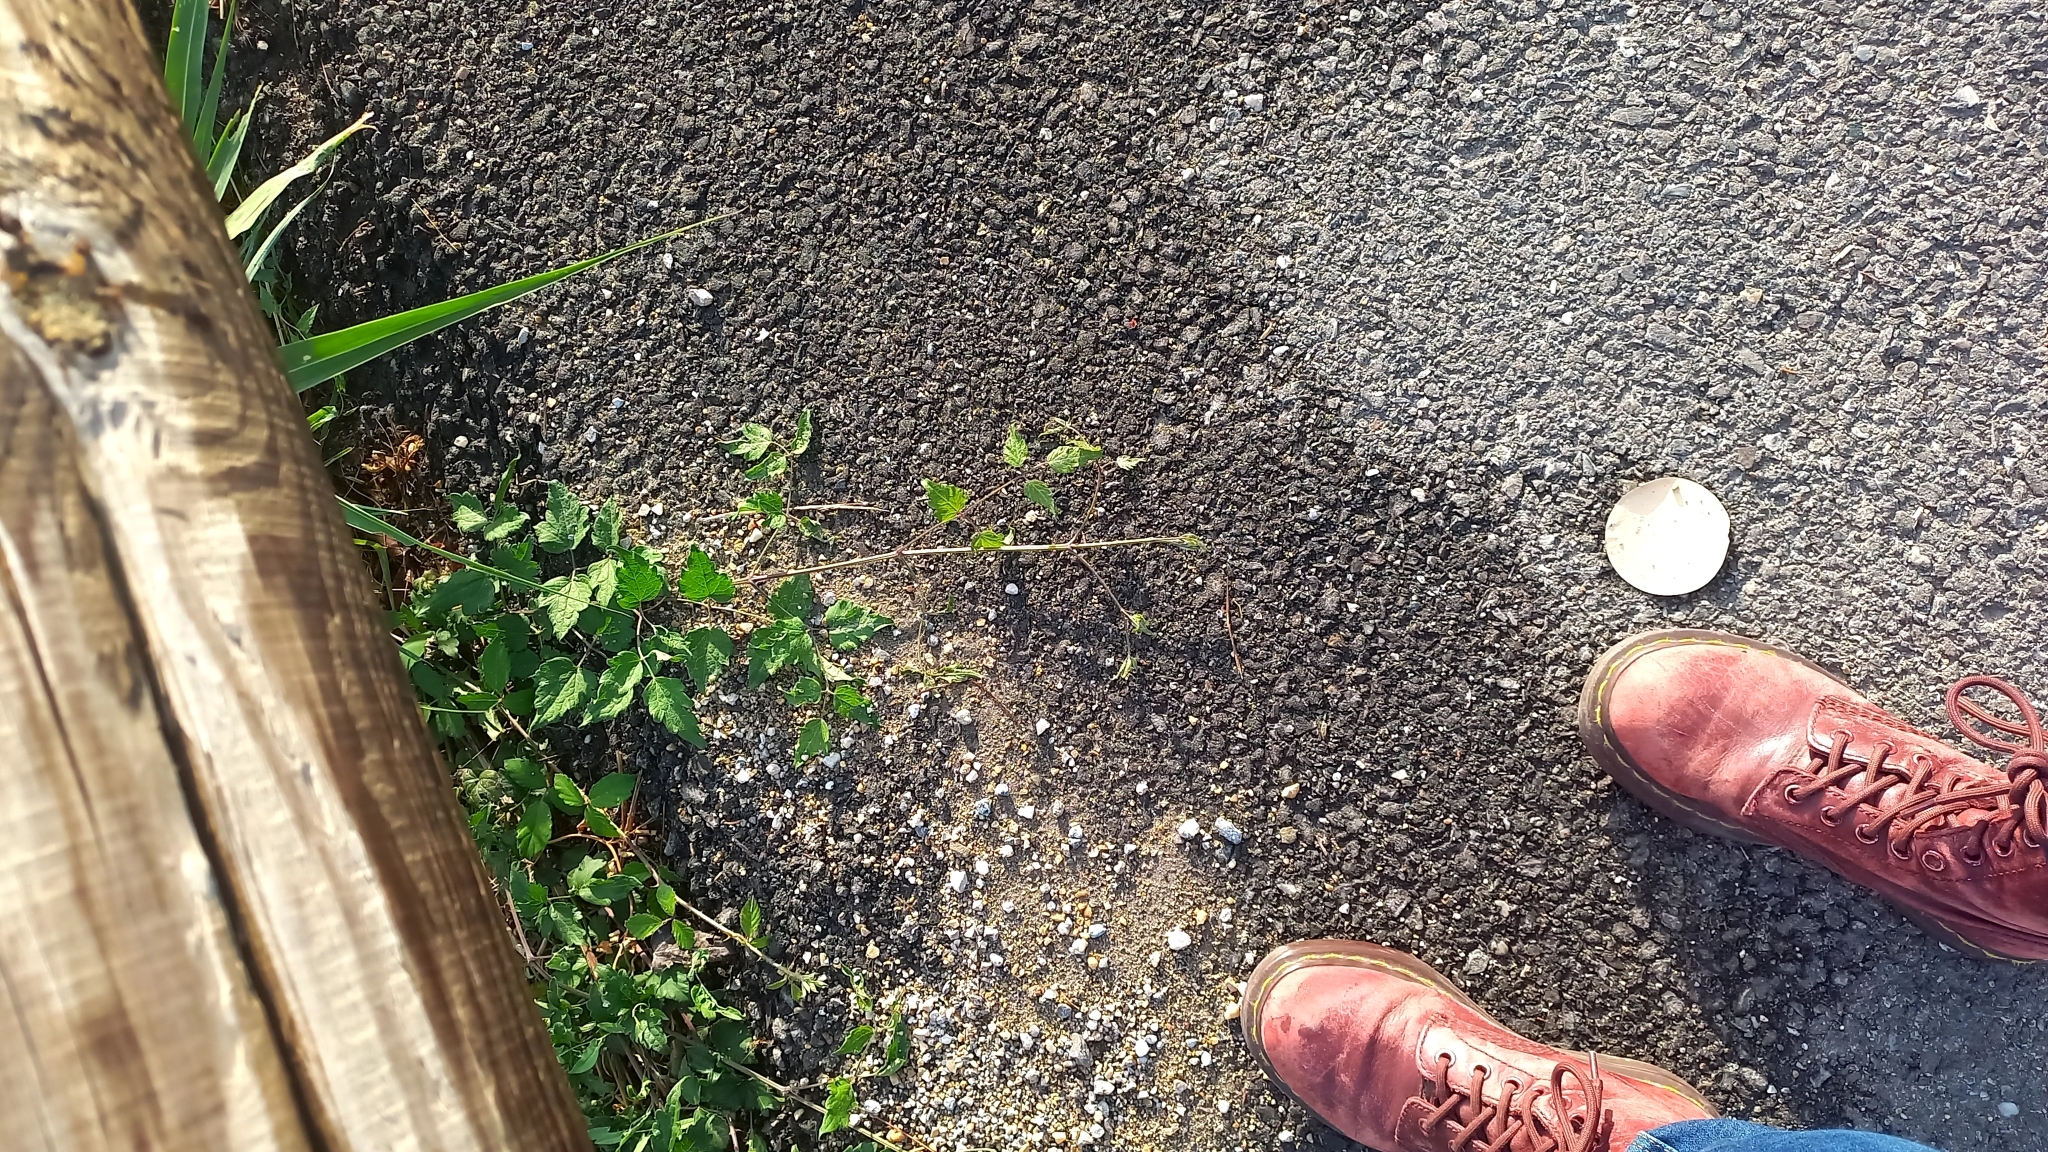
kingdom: Plantae
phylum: Tracheophyta
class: Magnoliopsida
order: Ranunculales
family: Ranunculaceae
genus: Clematis
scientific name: Clematis vitalba
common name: Evergreen clematis
